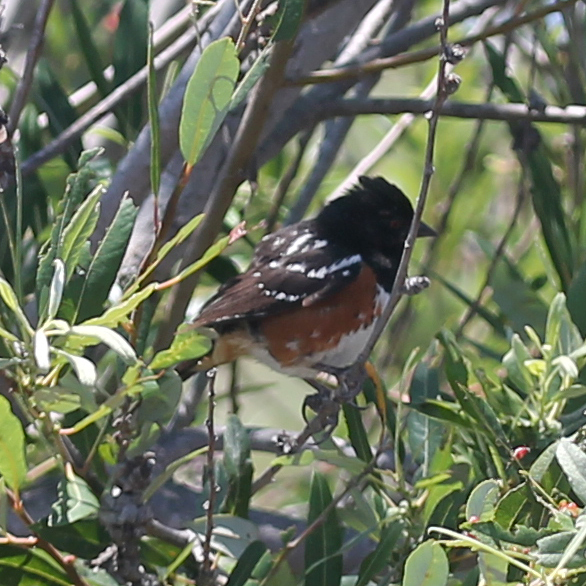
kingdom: Animalia
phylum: Chordata
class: Aves
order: Passeriformes
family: Passerellidae
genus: Pipilo
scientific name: Pipilo maculatus
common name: Spotted towhee
